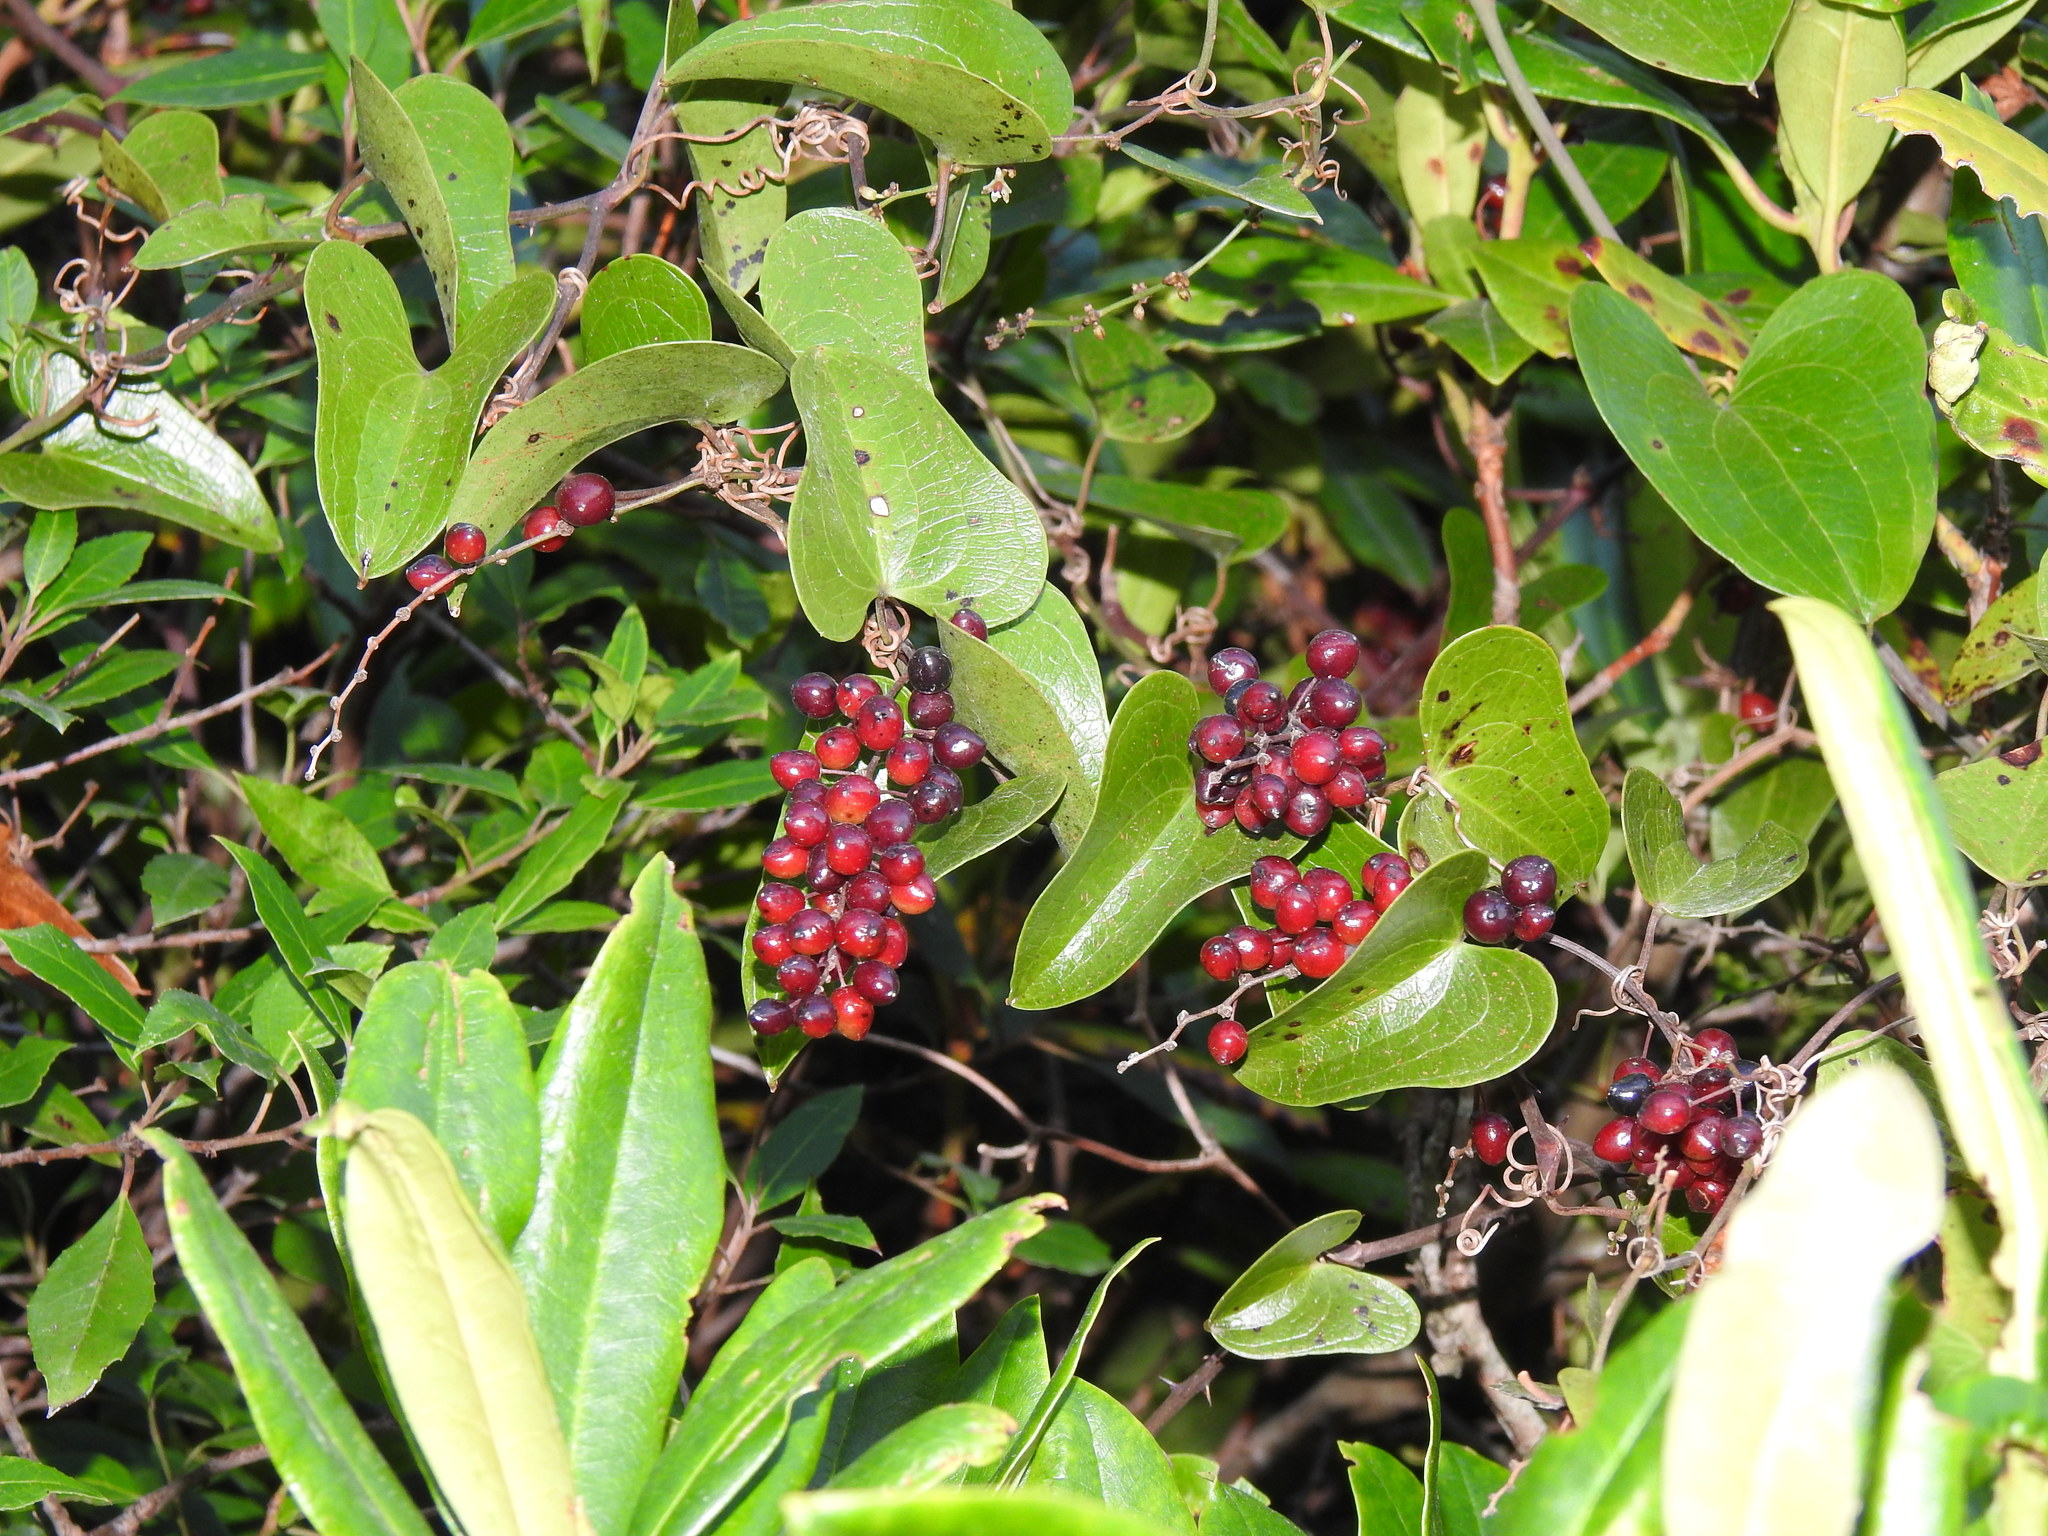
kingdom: Plantae
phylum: Tracheophyta
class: Liliopsida
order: Liliales
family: Smilacaceae
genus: Smilax
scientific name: Smilax aspera
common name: Common smilax
